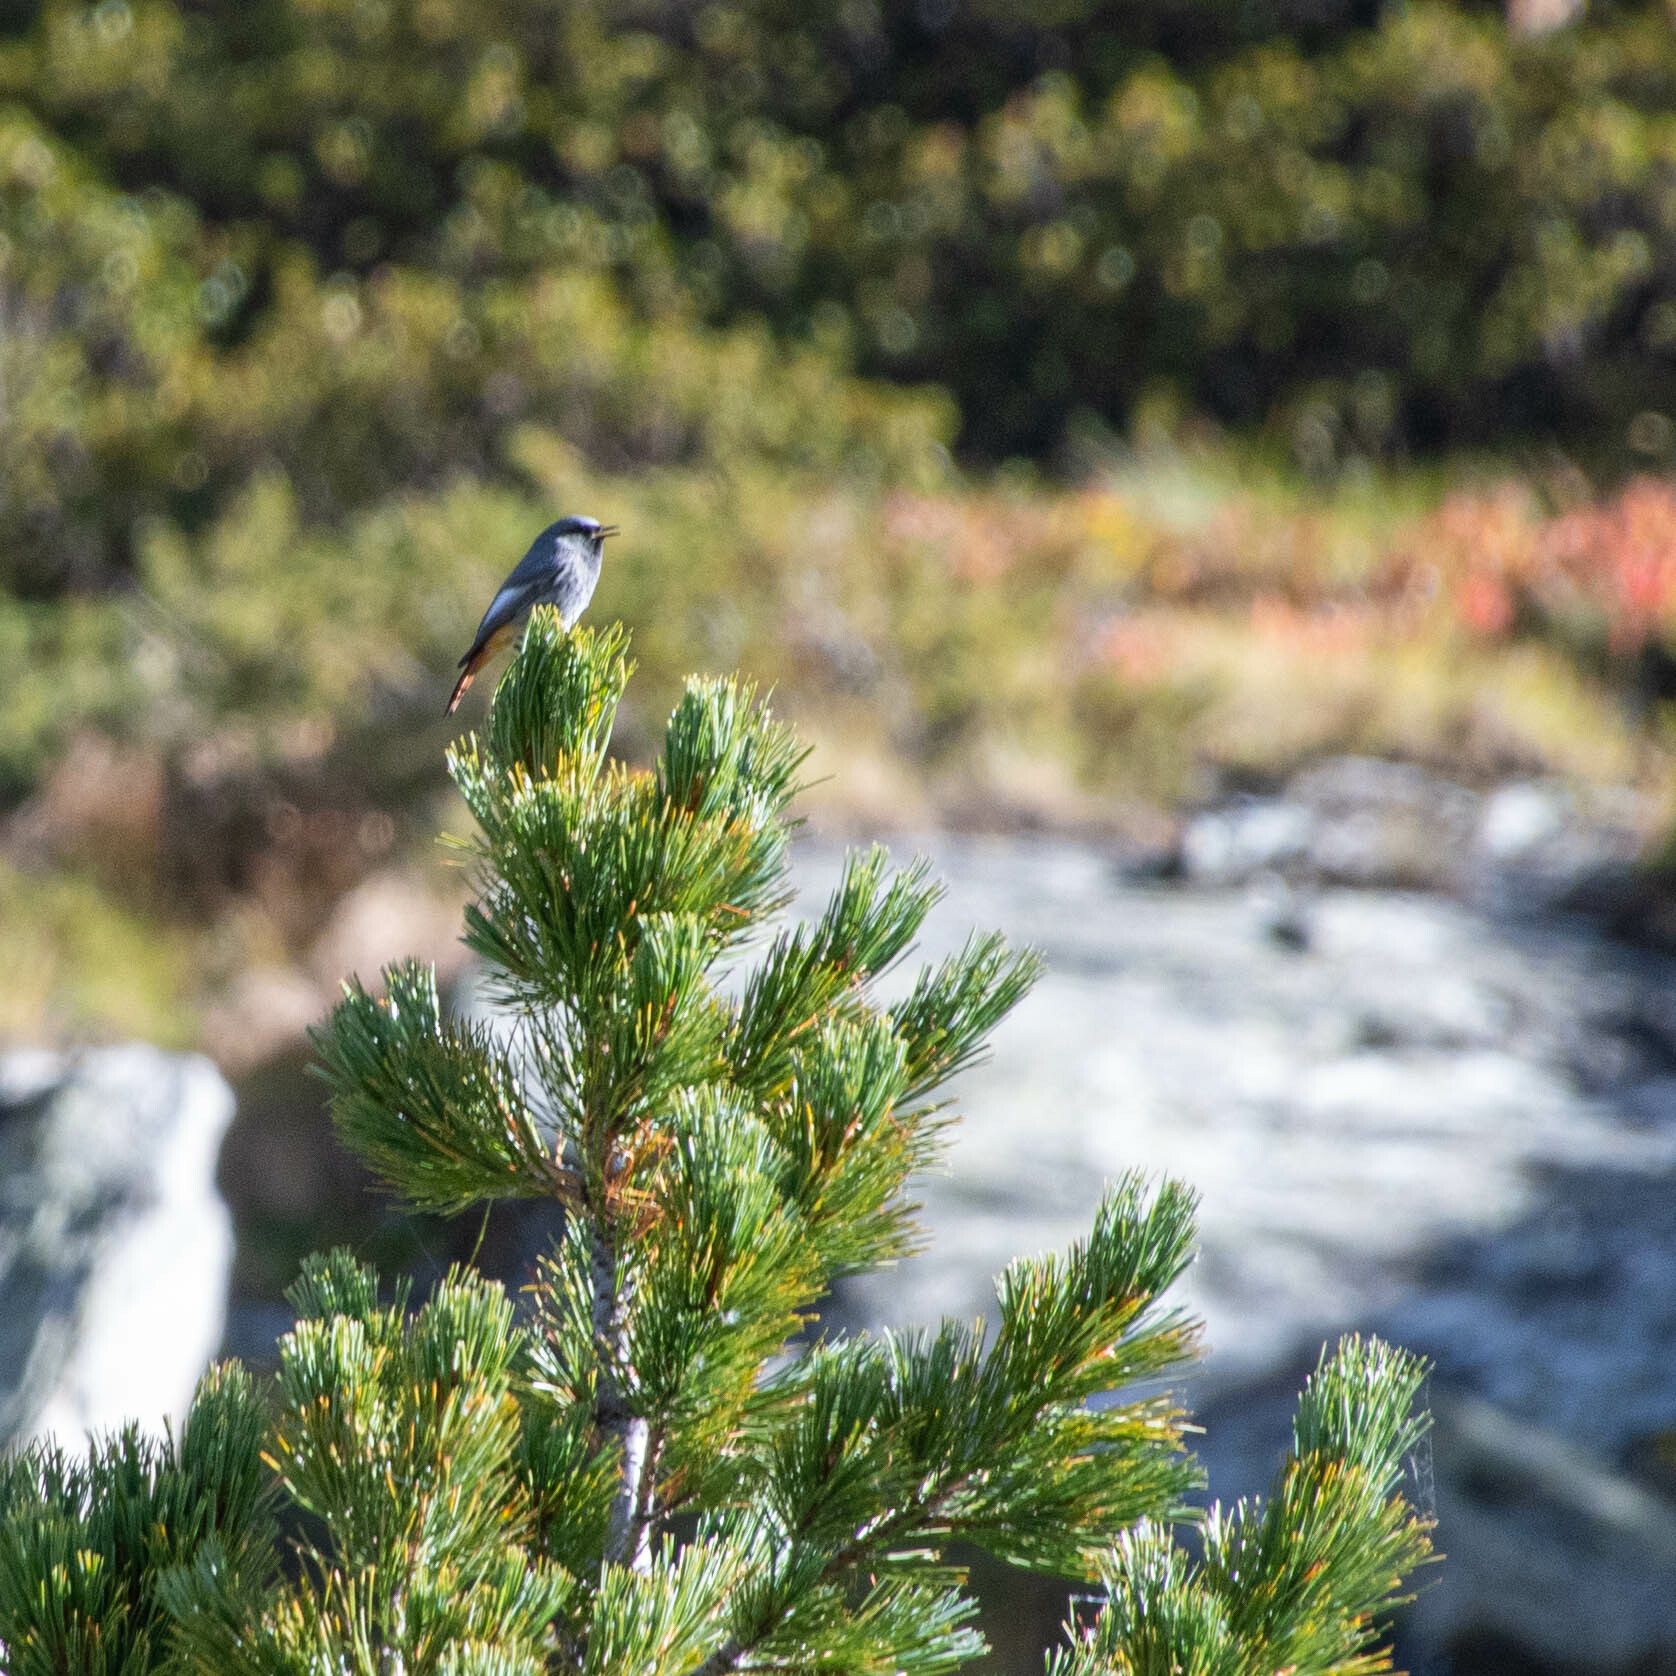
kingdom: Animalia
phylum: Chordata
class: Aves
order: Passeriformes
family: Muscicapidae
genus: Phoenicurus
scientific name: Phoenicurus ochruros
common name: Black redstart
